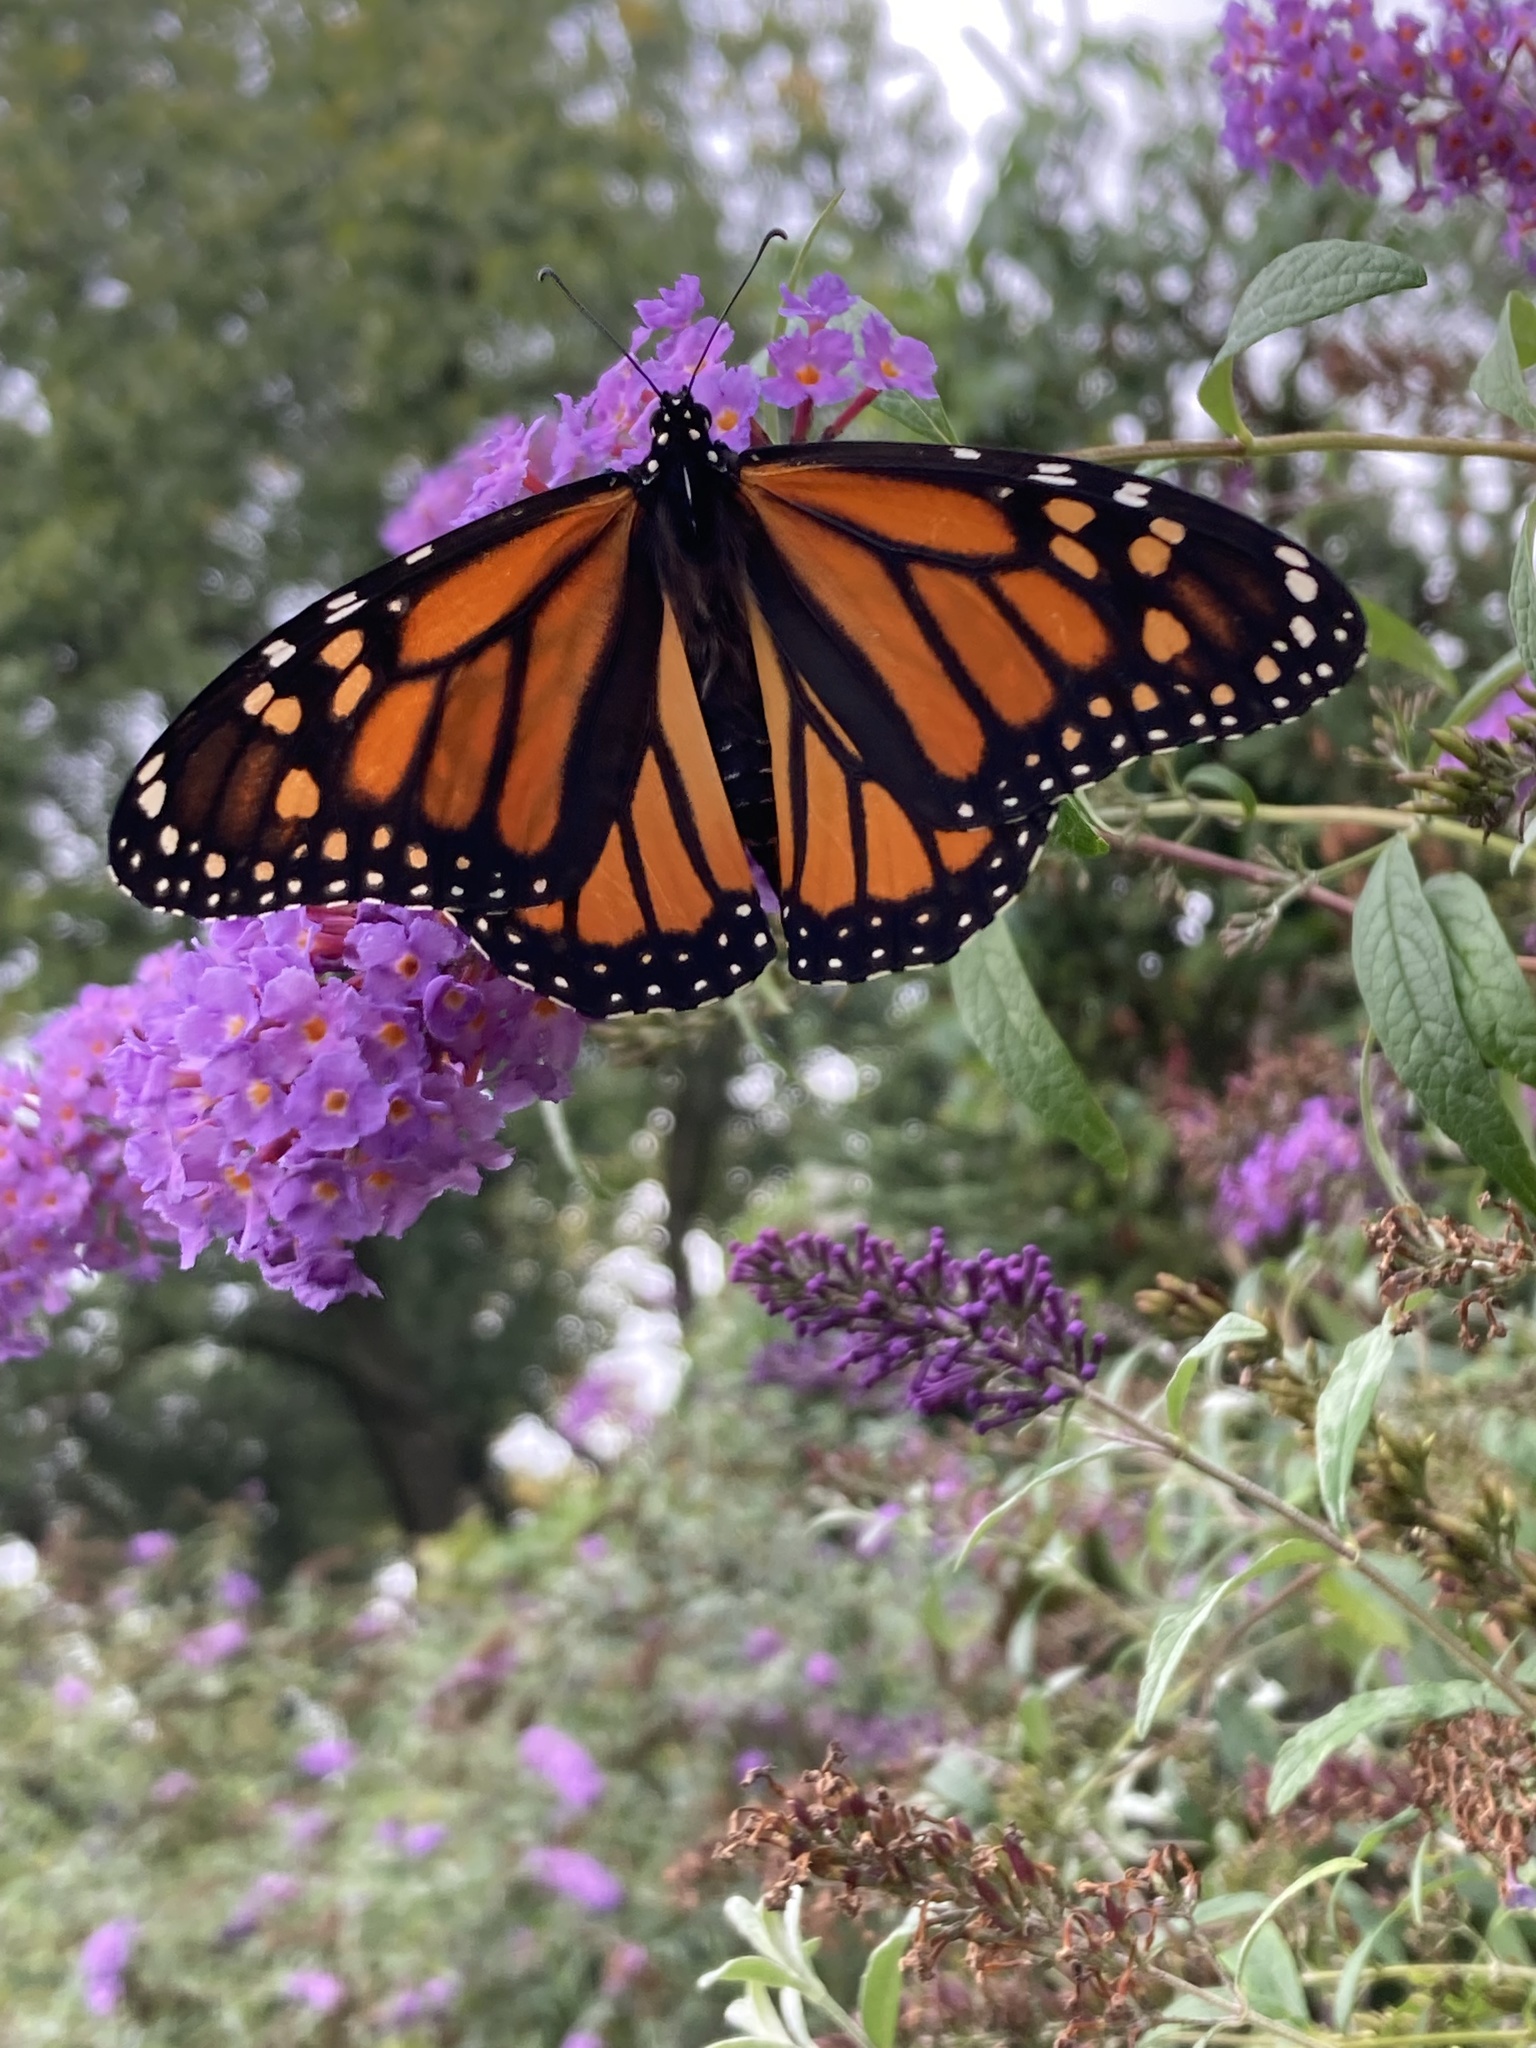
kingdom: Animalia
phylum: Arthropoda
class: Insecta
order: Lepidoptera
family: Nymphalidae
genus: Danaus
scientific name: Danaus plexippus
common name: Monarch
